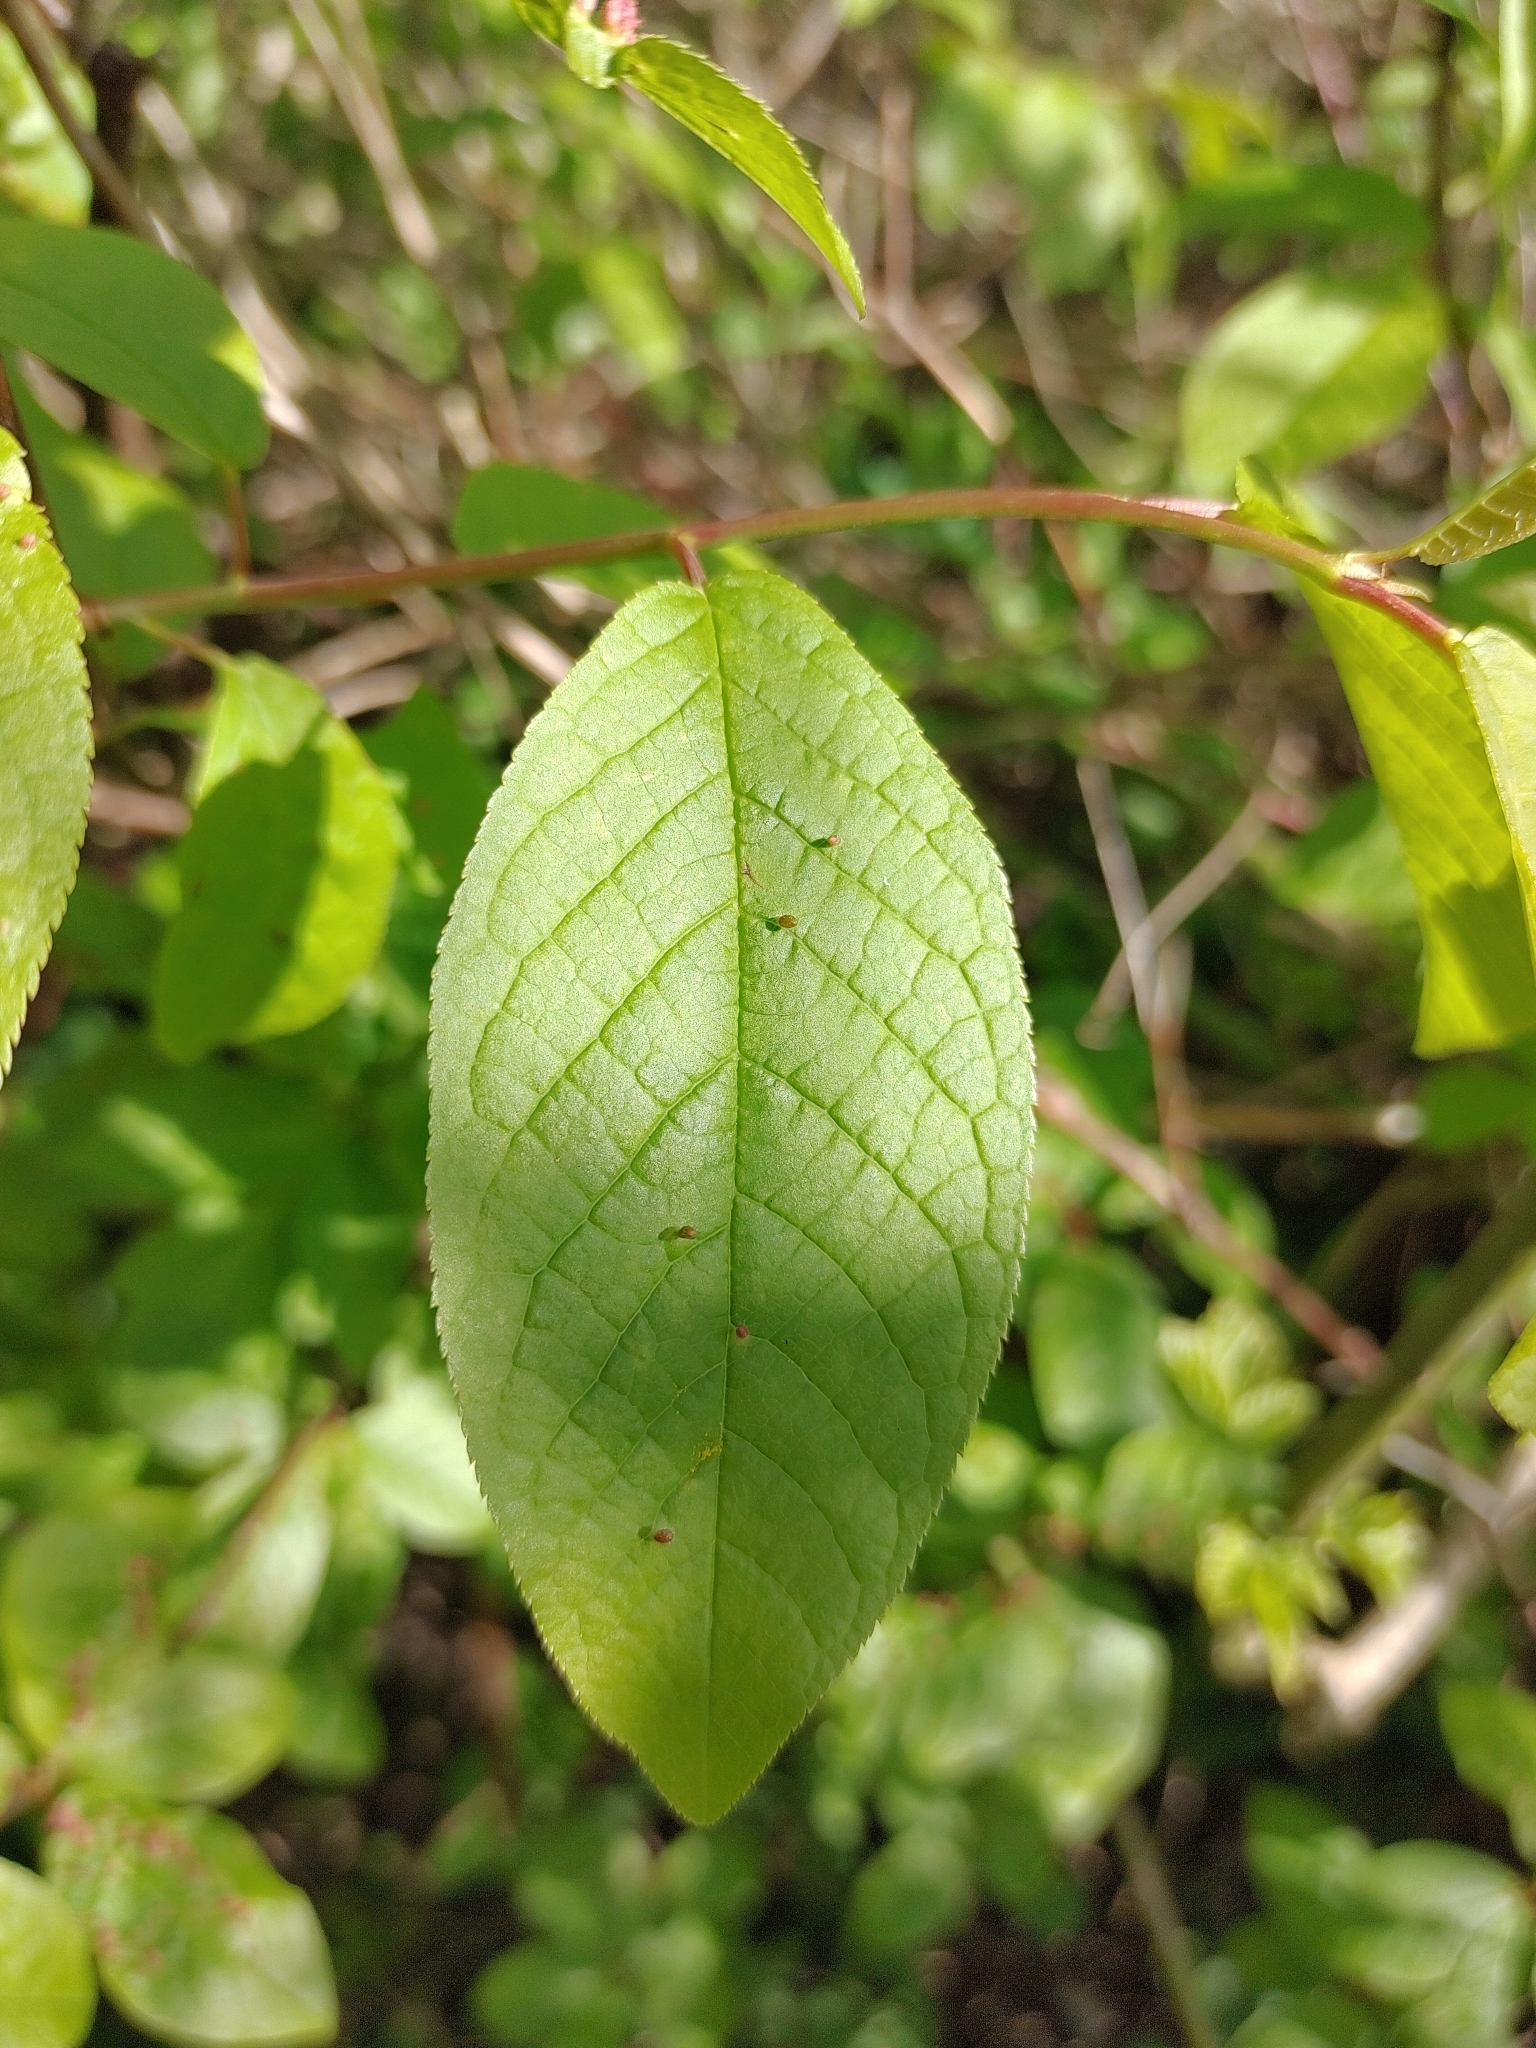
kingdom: Plantae
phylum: Tracheophyta
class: Magnoliopsida
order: Rosales
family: Rosaceae
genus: Prunus
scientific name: Prunus padus
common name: Bird cherry
